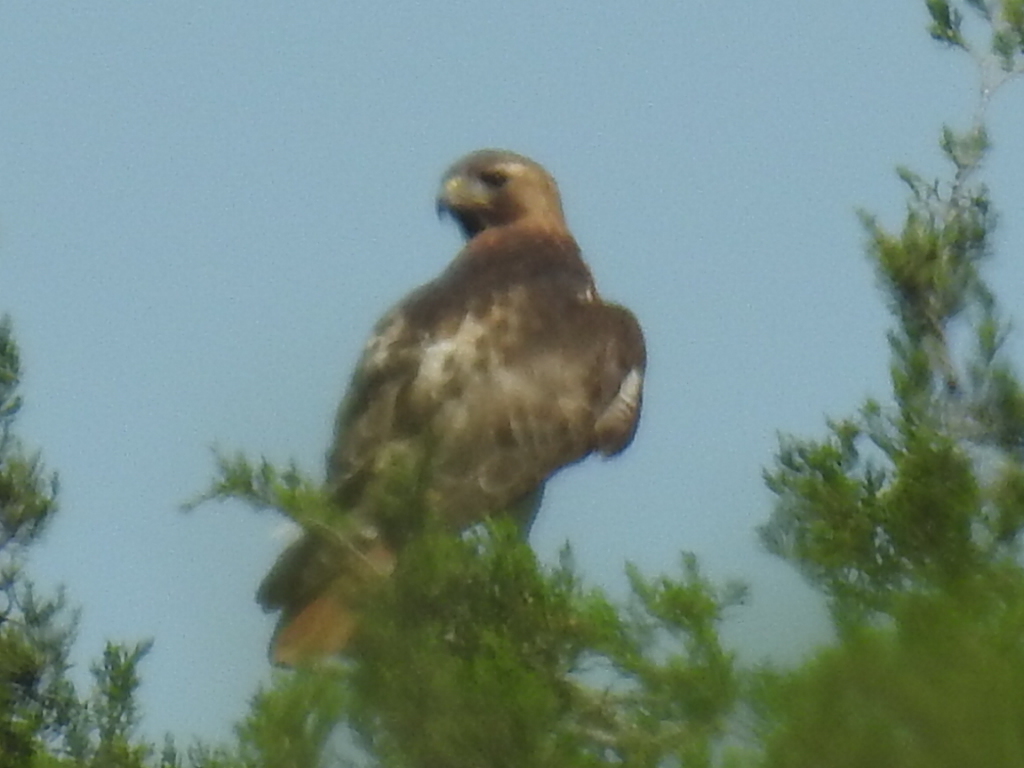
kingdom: Animalia
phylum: Chordata
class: Aves
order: Accipitriformes
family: Accipitridae
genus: Buteo
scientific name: Buteo jamaicensis
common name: Red-tailed hawk
